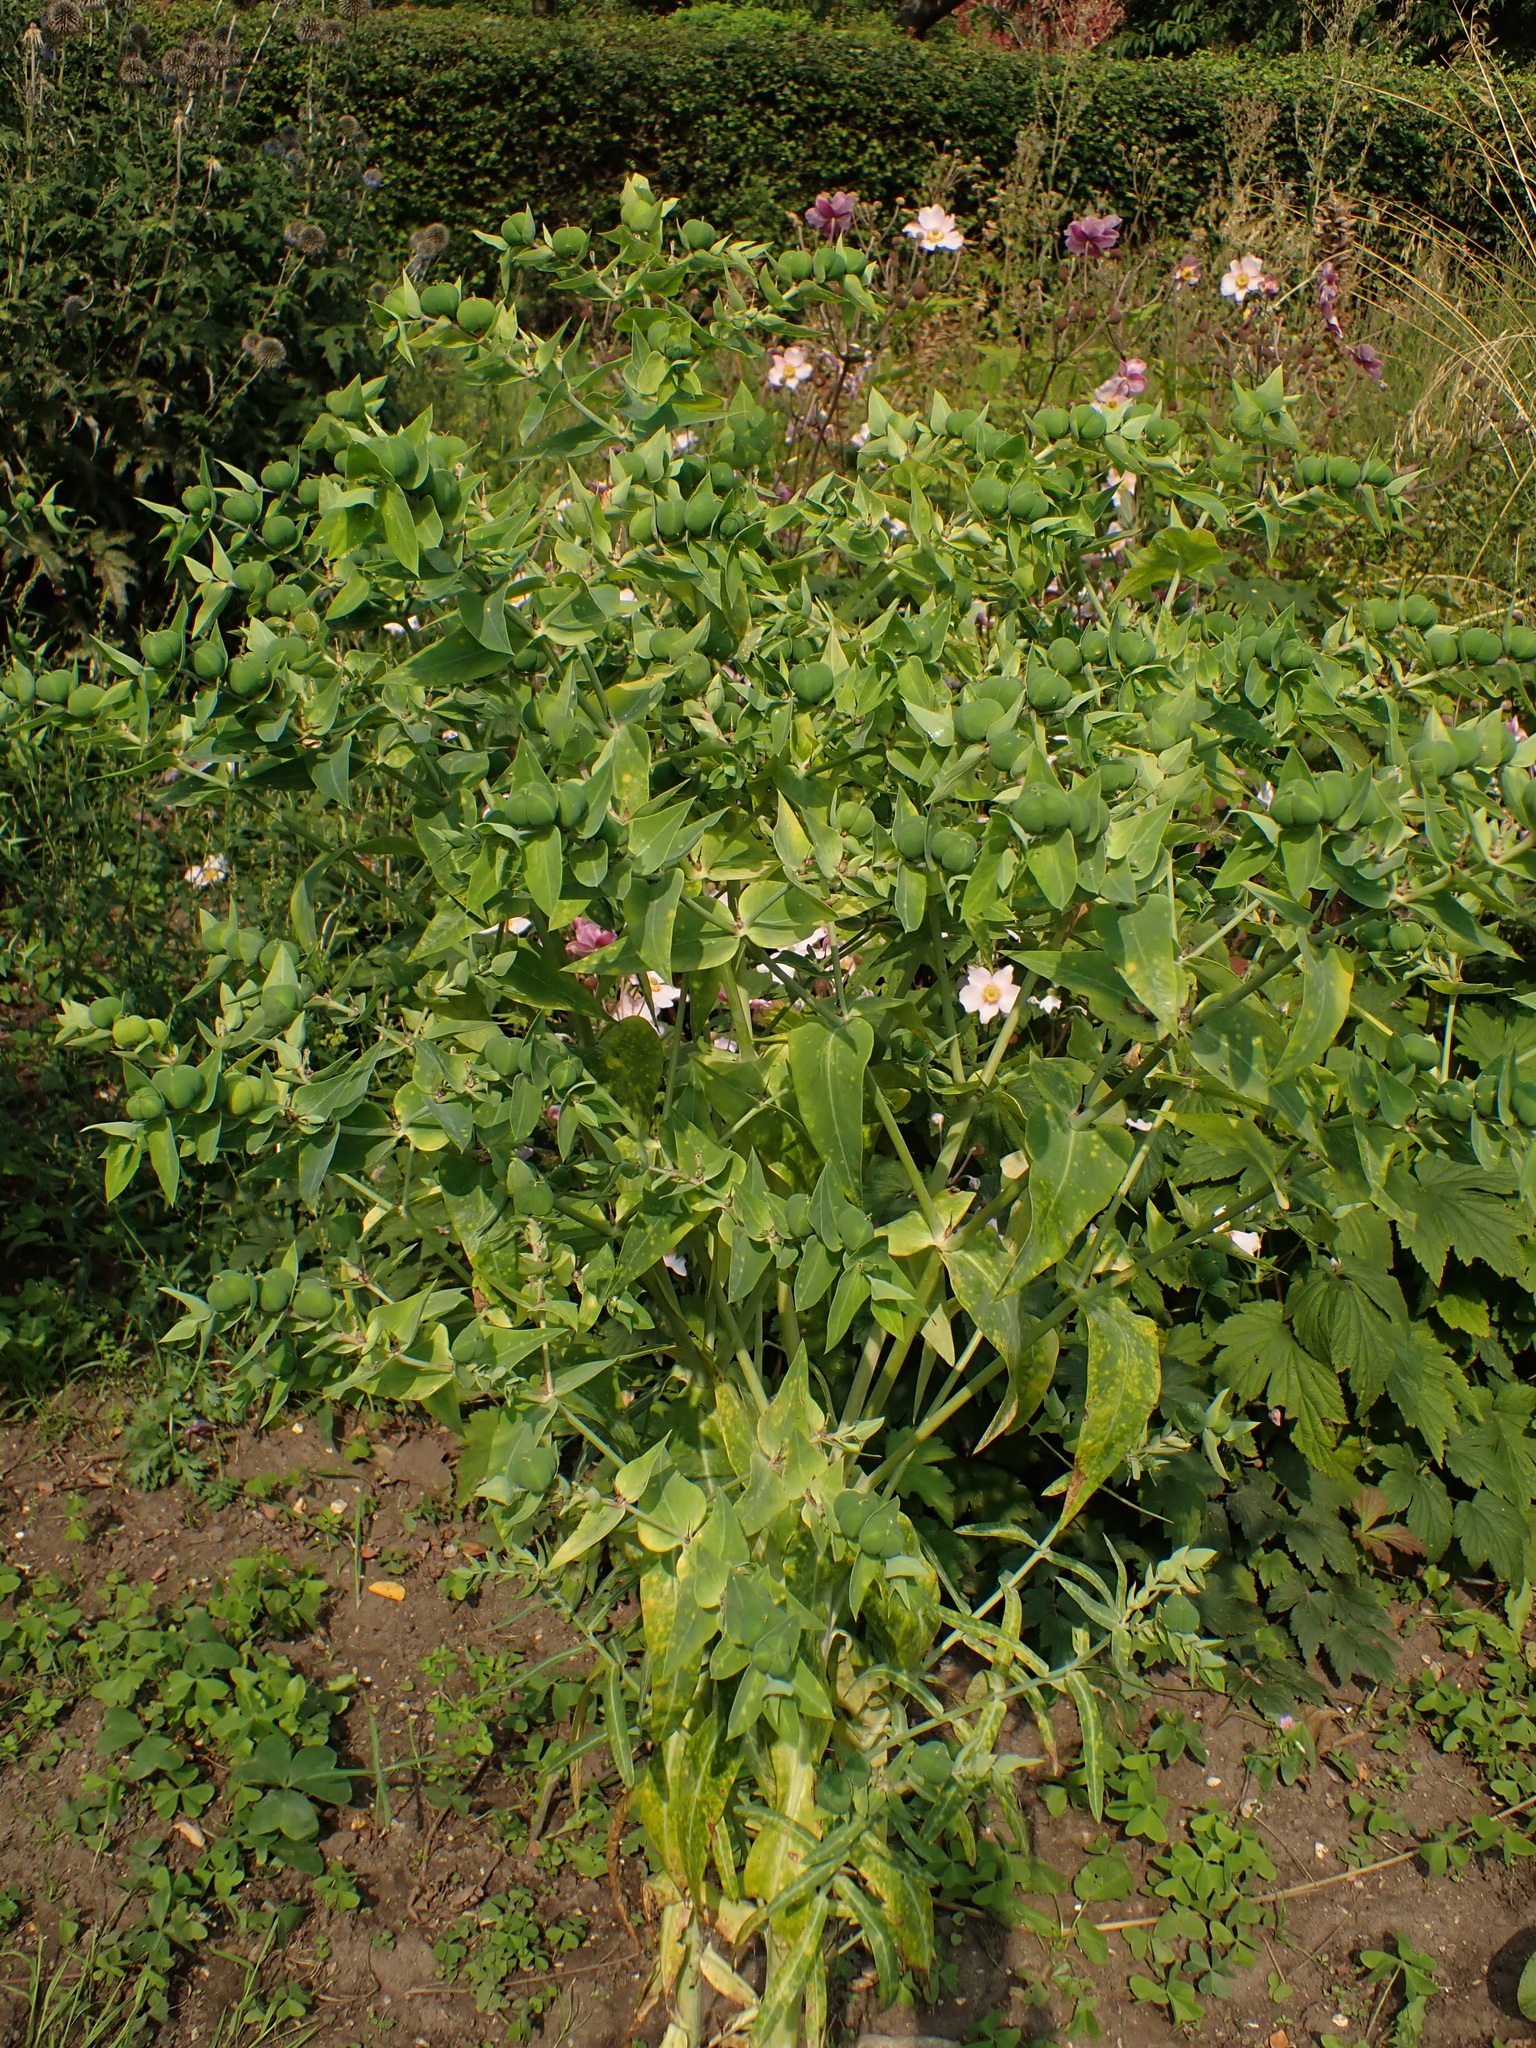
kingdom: Plantae
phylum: Tracheophyta
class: Magnoliopsida
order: Malpighiales
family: Euphorbiaceae
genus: Euphorbia
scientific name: Euphorbia lathyris
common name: Caper spurge
